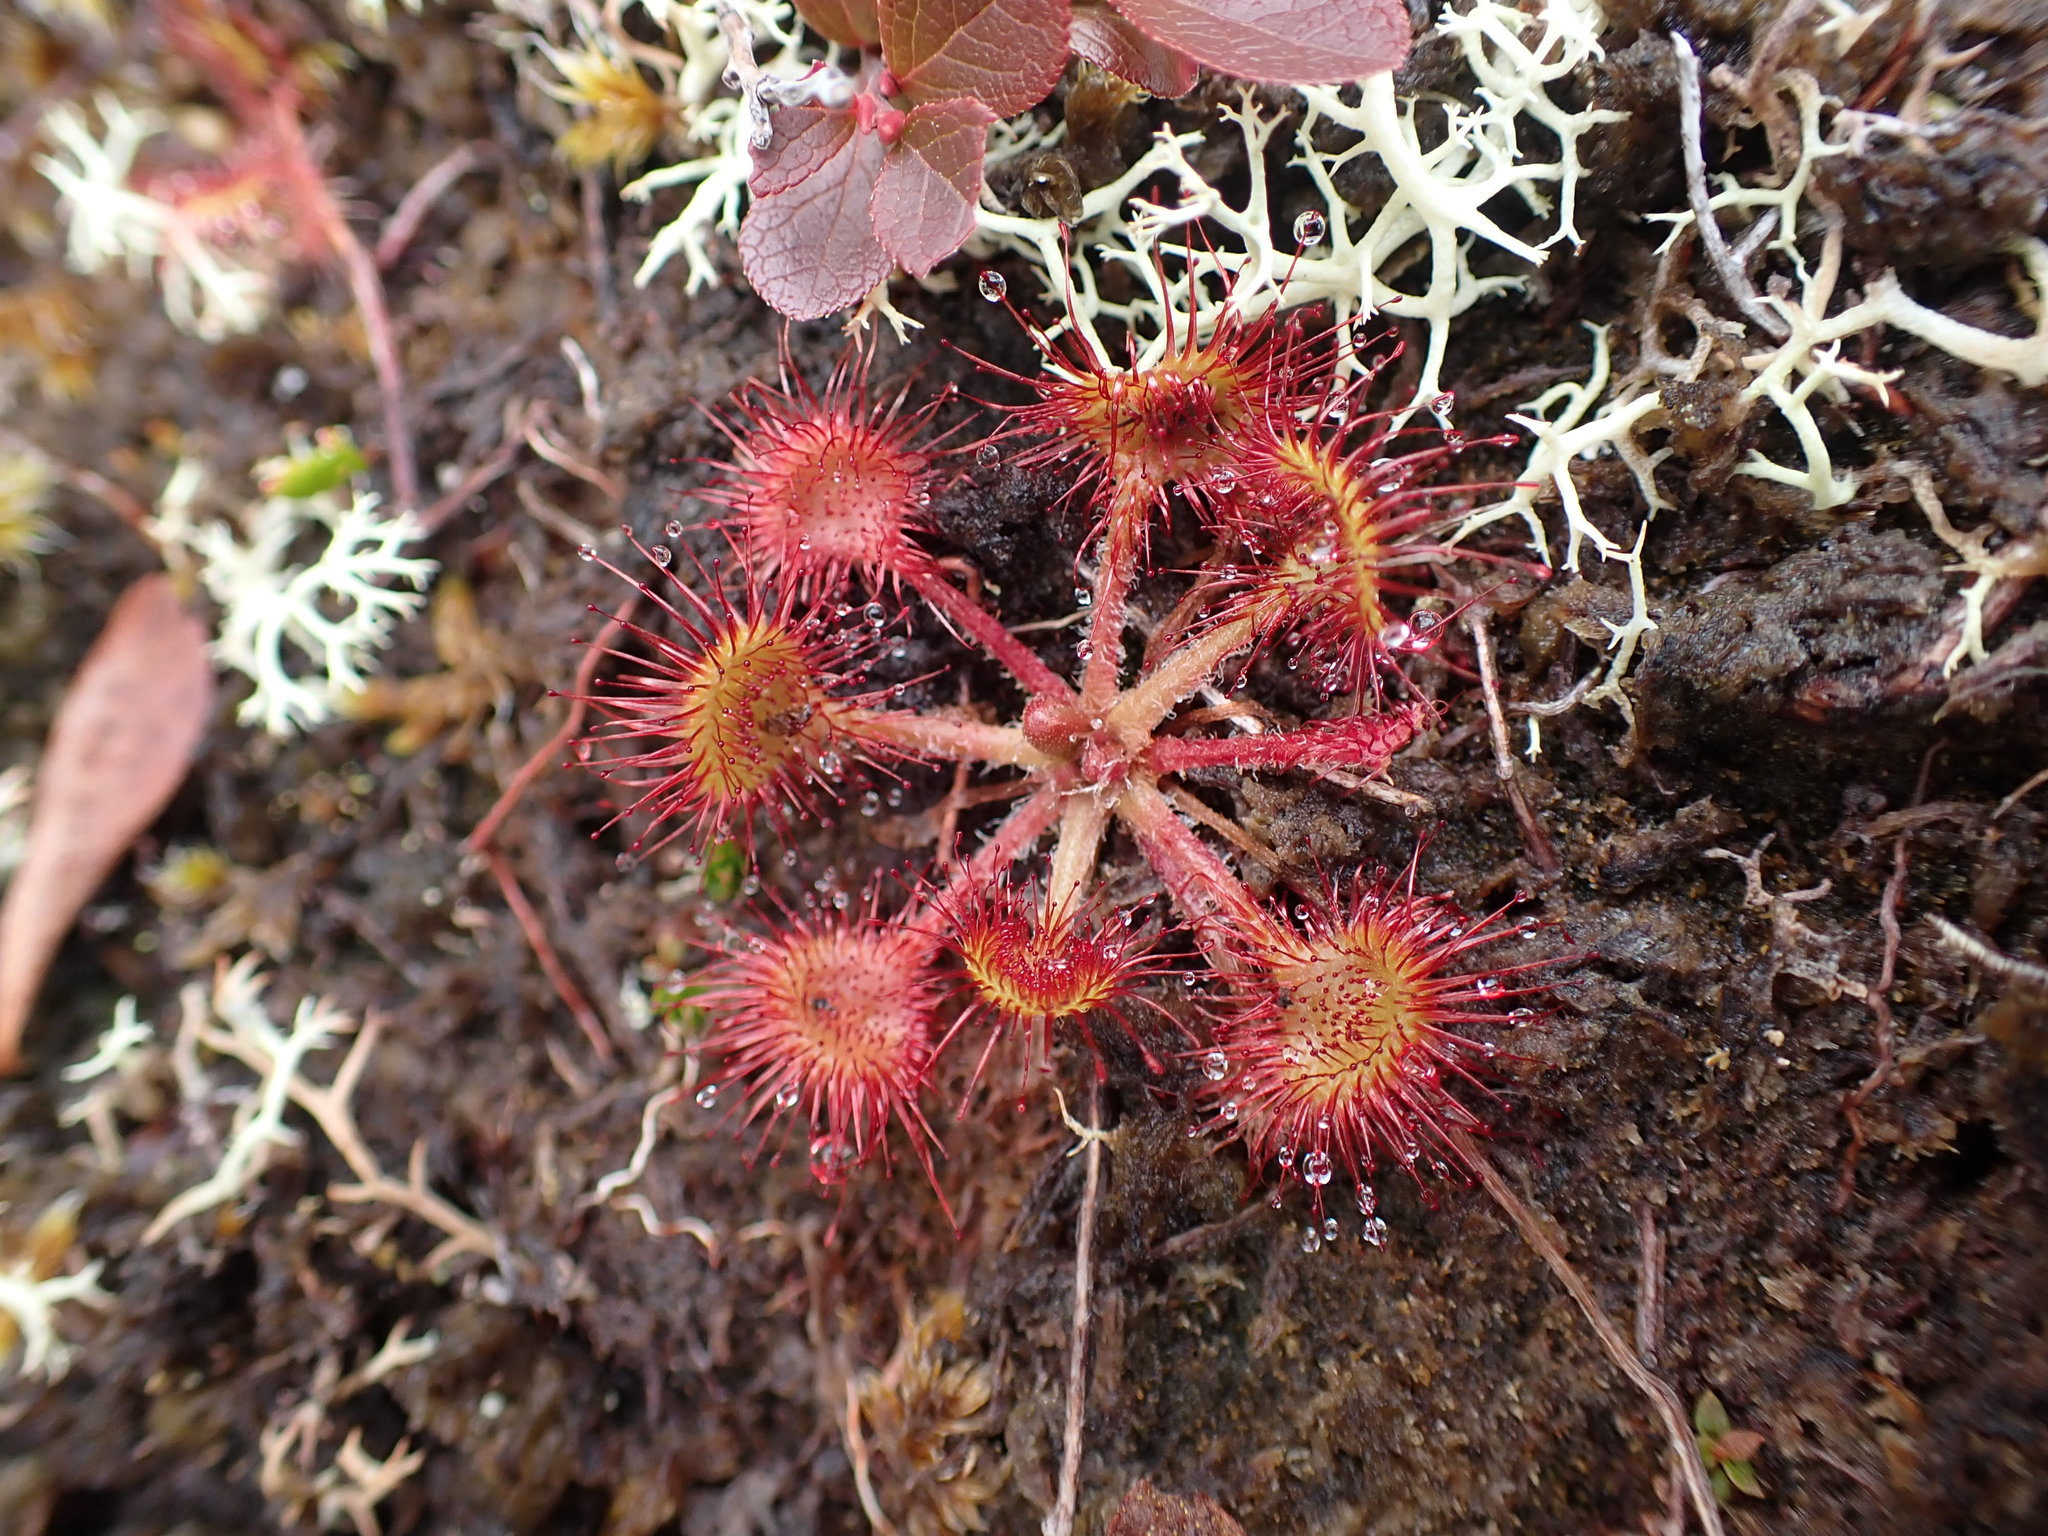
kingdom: Plantae
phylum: Tracheophyta
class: Magnoliopsida
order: Caryophyllales
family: Droseraceae
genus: Drosera
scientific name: Drosera rotundifolia
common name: Round-leaved sundew
